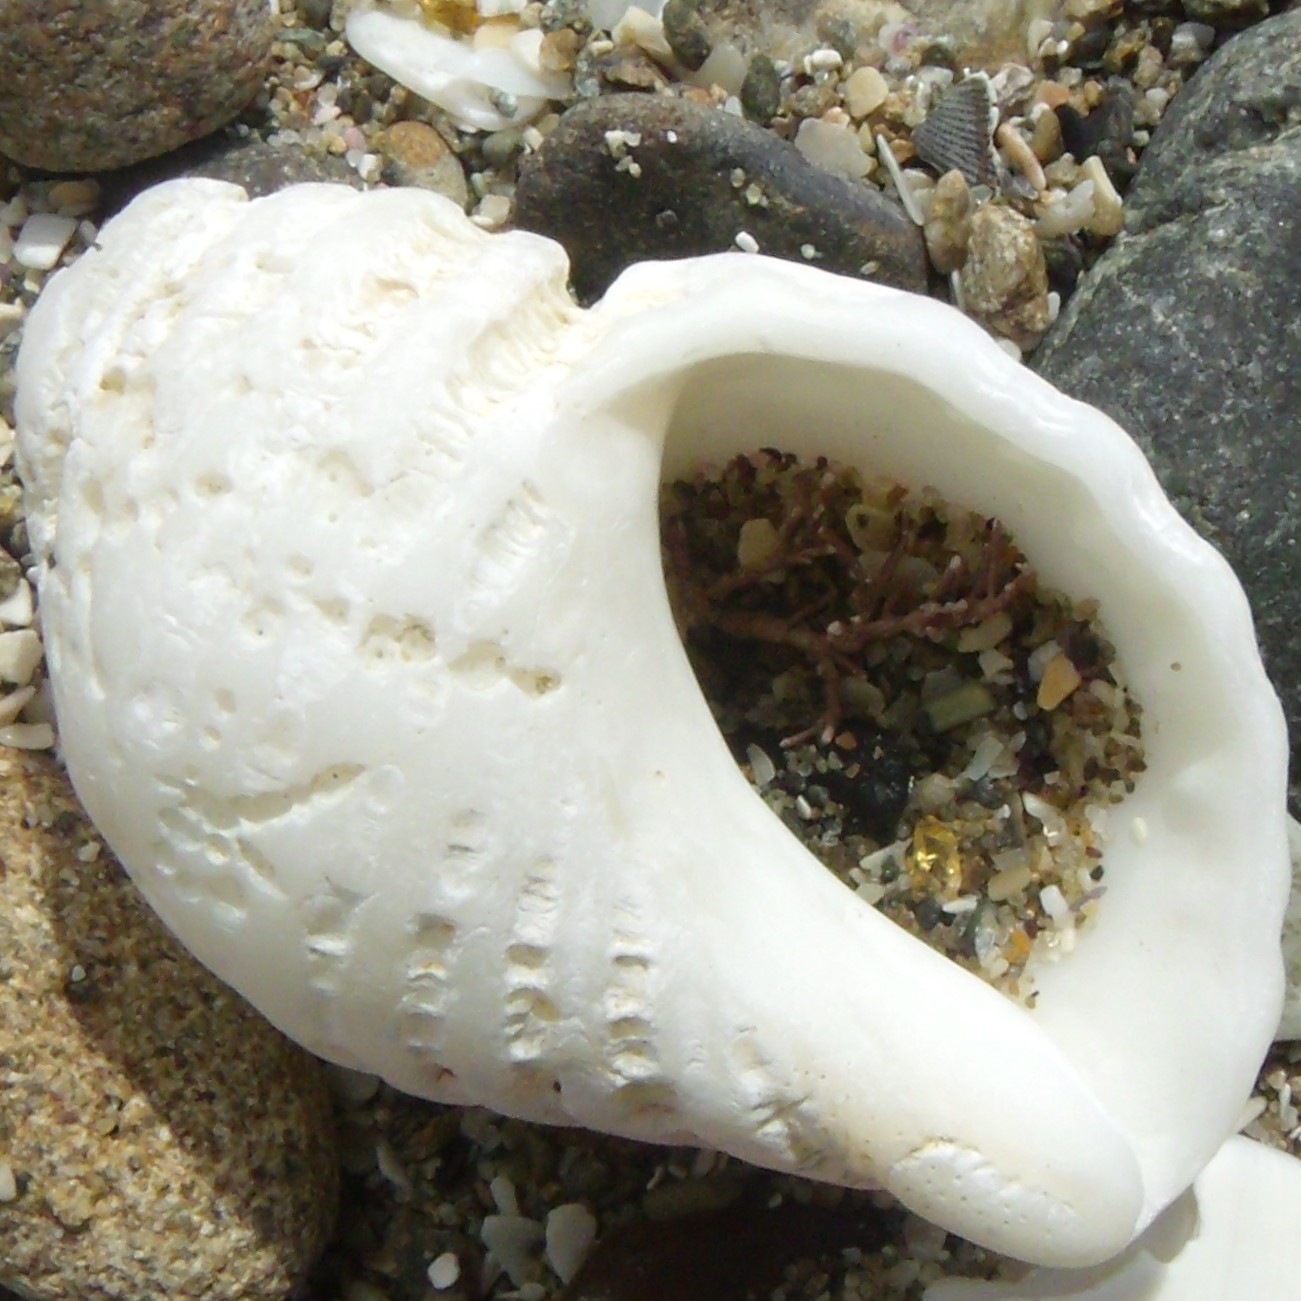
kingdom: Animalia
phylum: Mollusca
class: Gastropoda
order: Neogastropoda
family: Muricidae
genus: Haustrum
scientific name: Haustrum lacunosum
